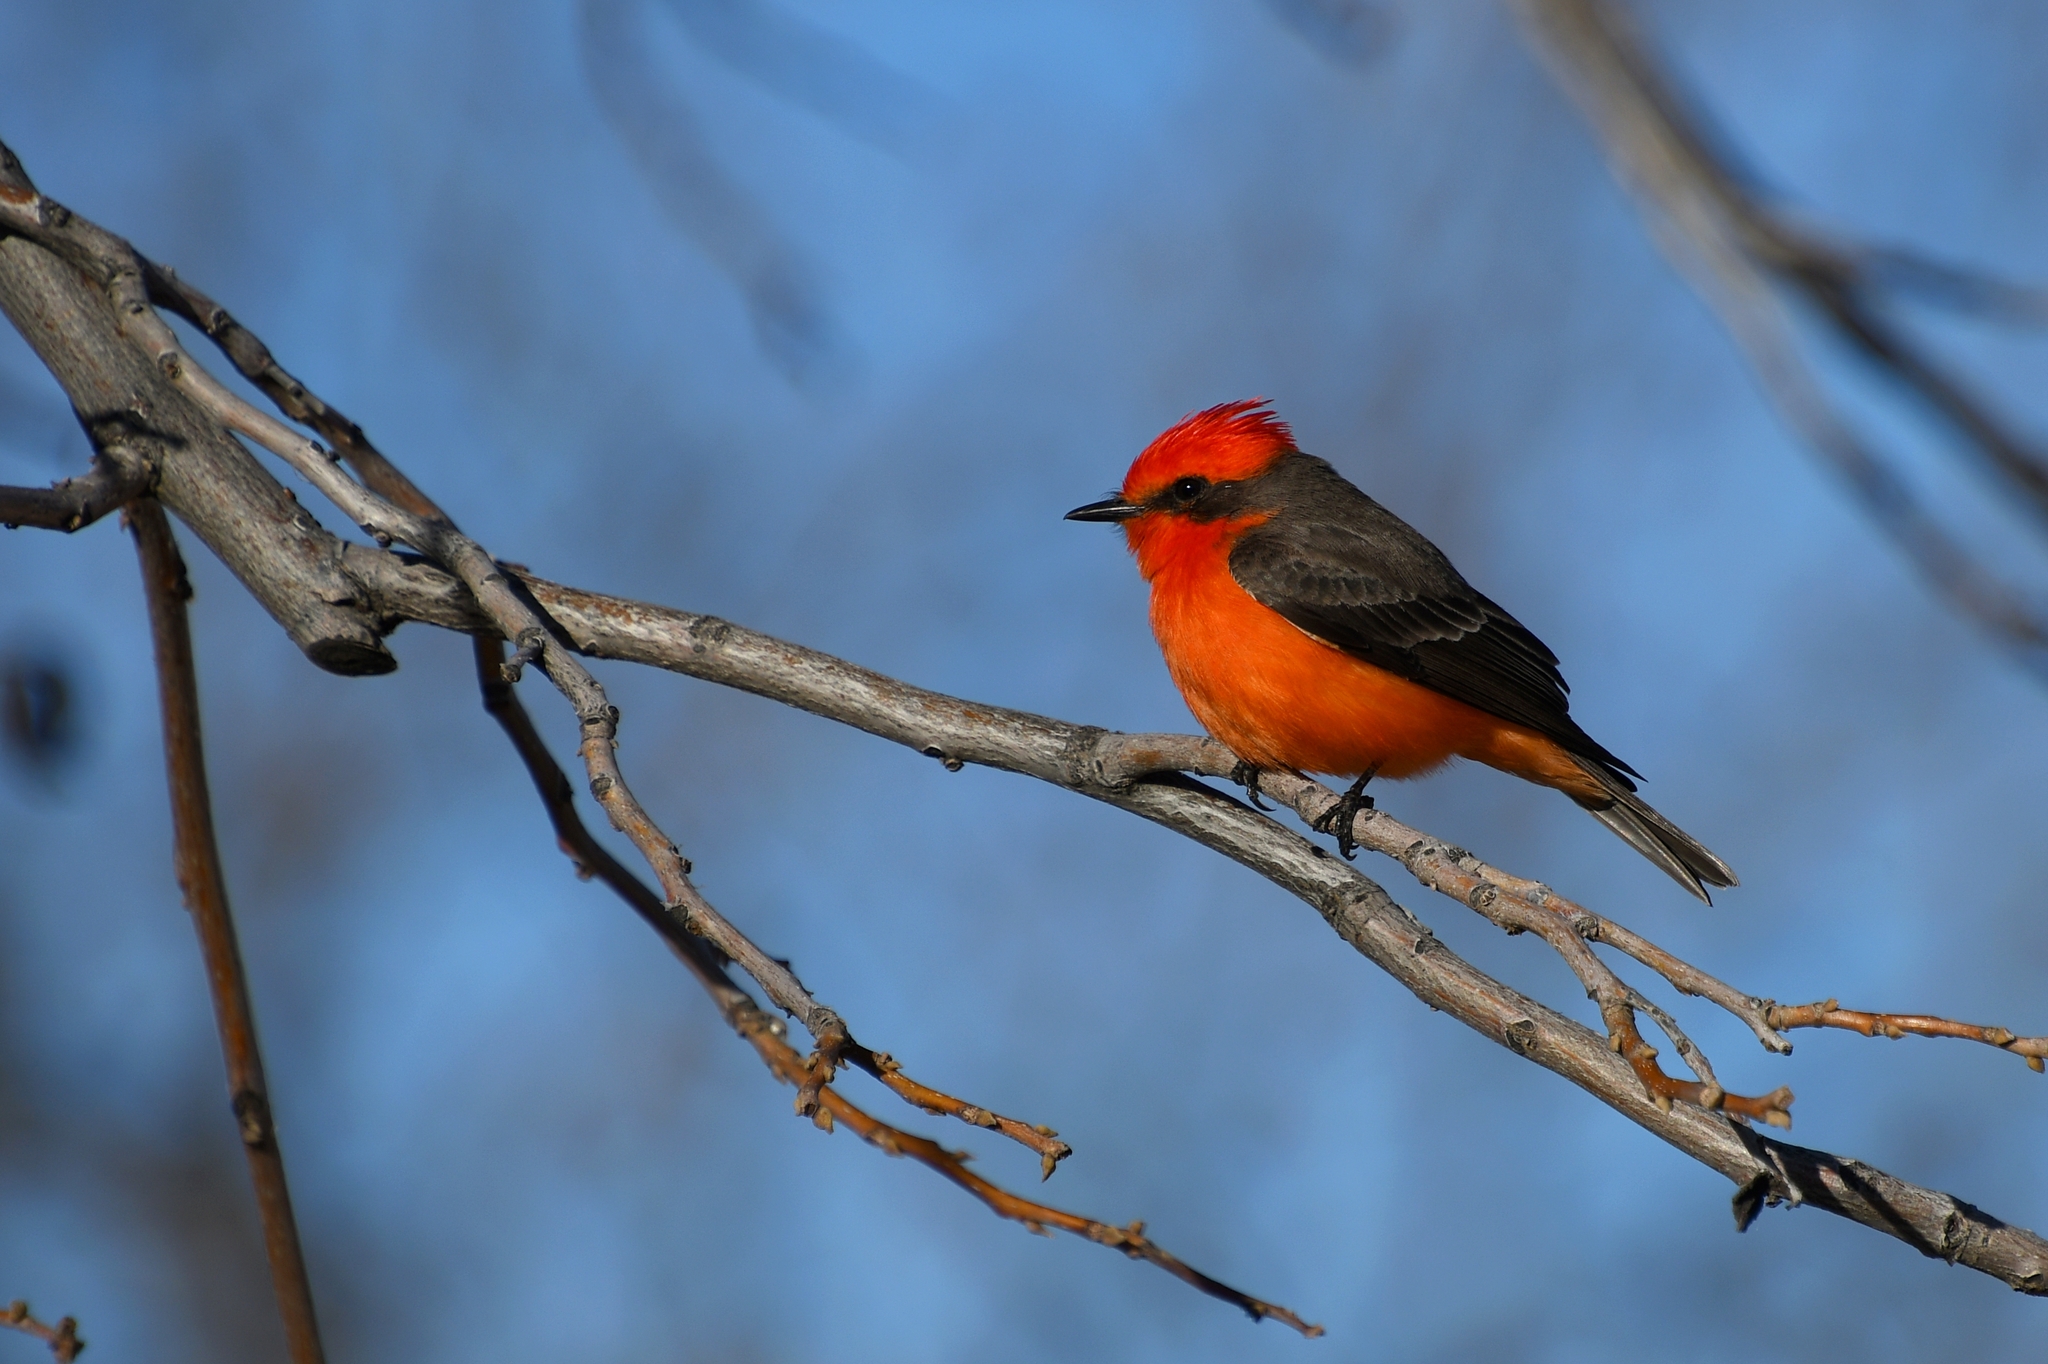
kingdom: Animalia
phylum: Chordata
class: Aves
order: Passeriformes
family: Tyrannidae
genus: Pyrocephalus
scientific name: Pyrocephalus rubinus
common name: Vermilion flycatcher
